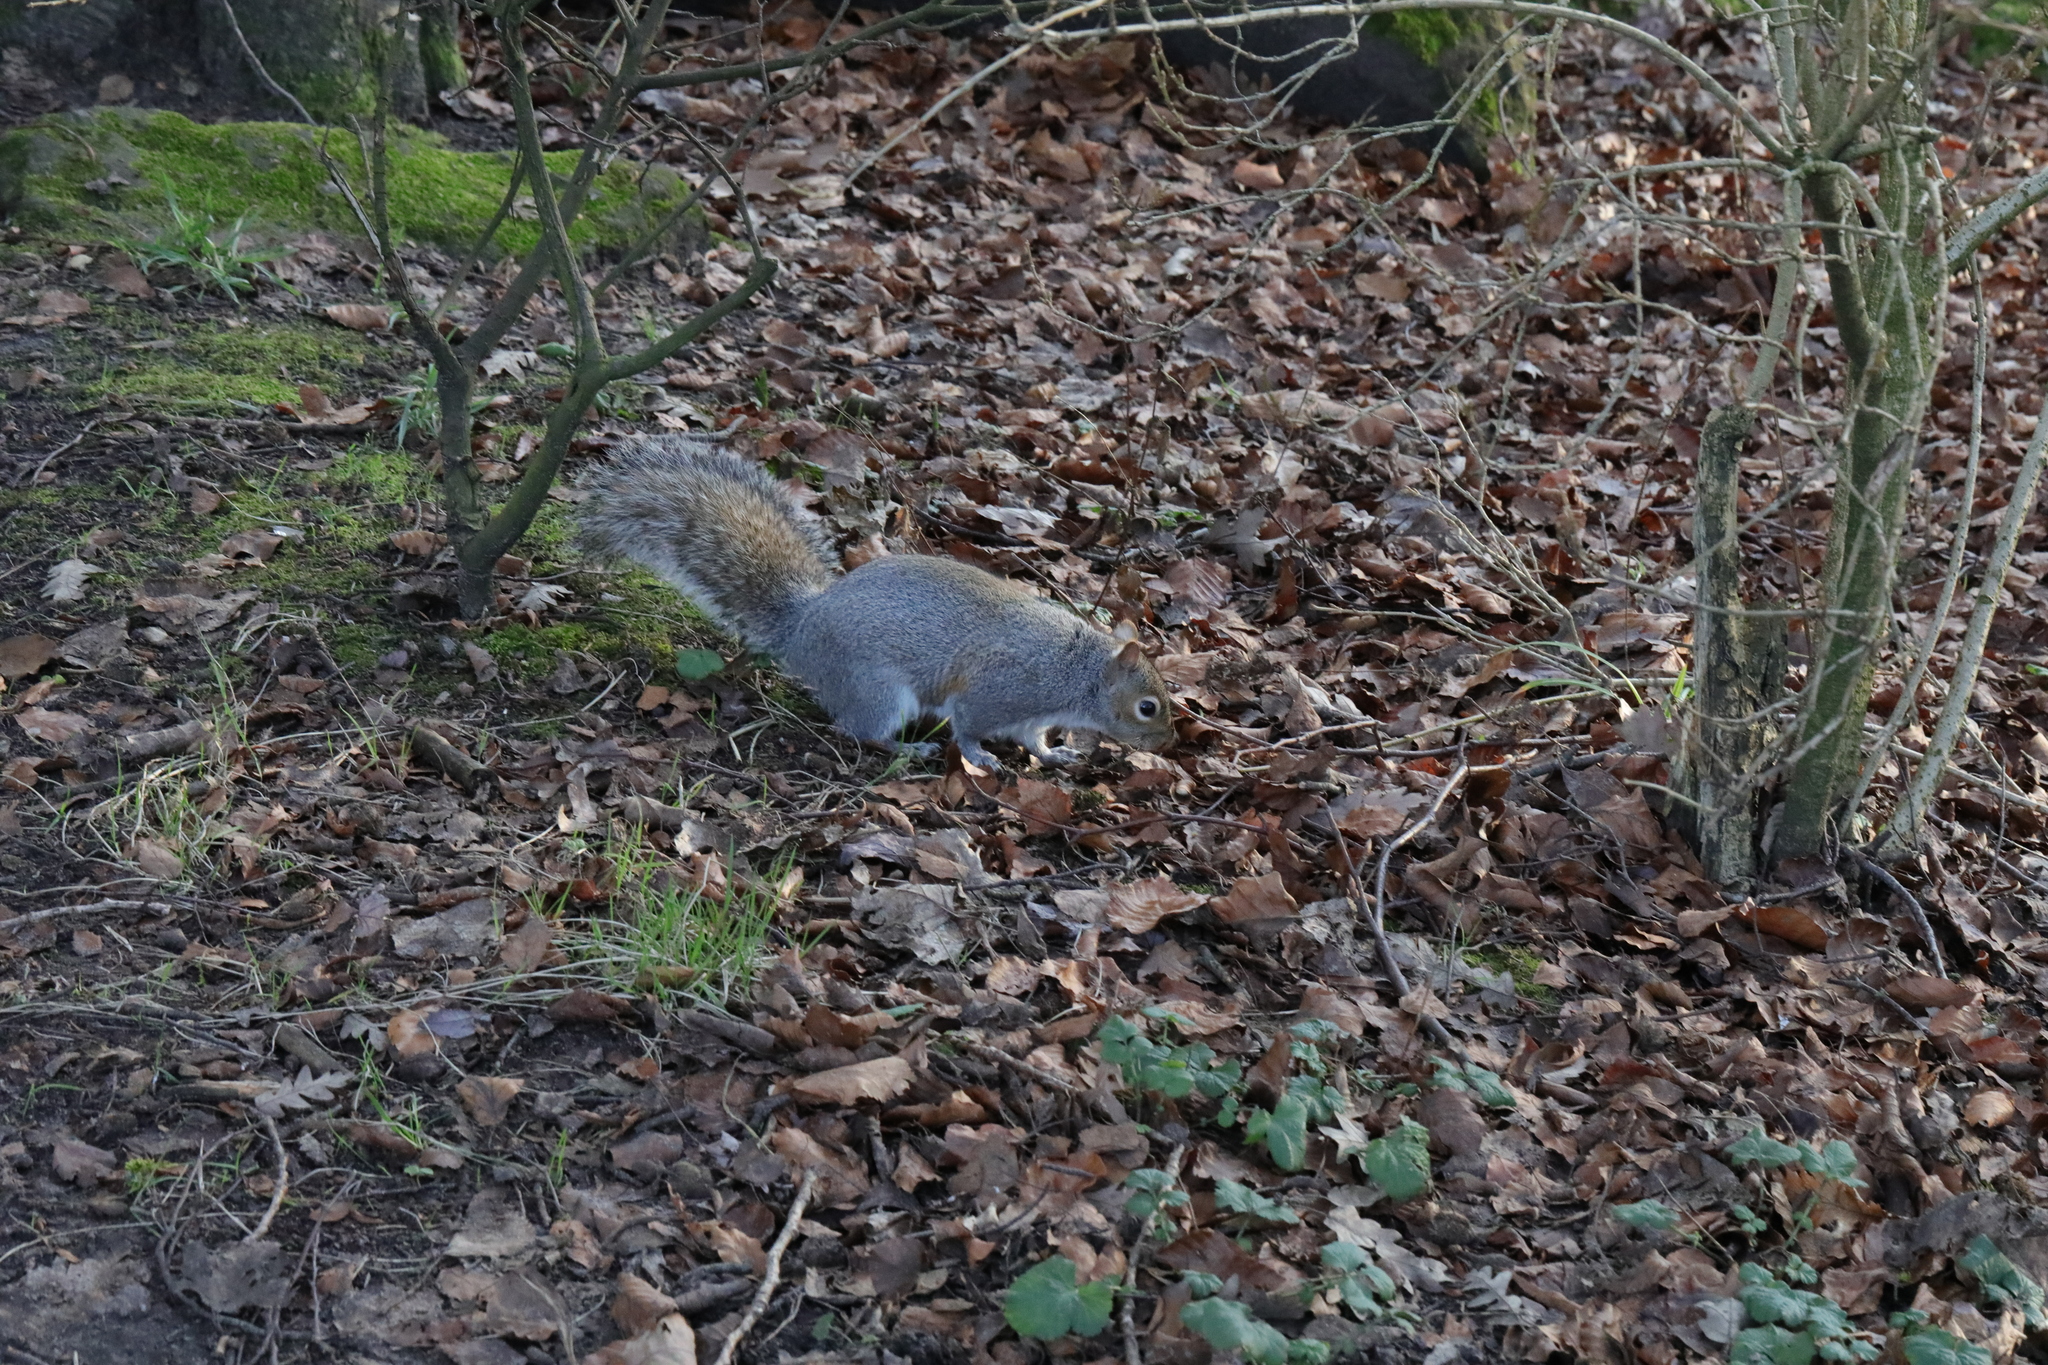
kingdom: Animalia
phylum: Chordata
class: Mammalia
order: Rodentia
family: Sciuridae
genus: Sciurus
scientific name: Sciurus carolinensis
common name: Eastern gray squirrel
